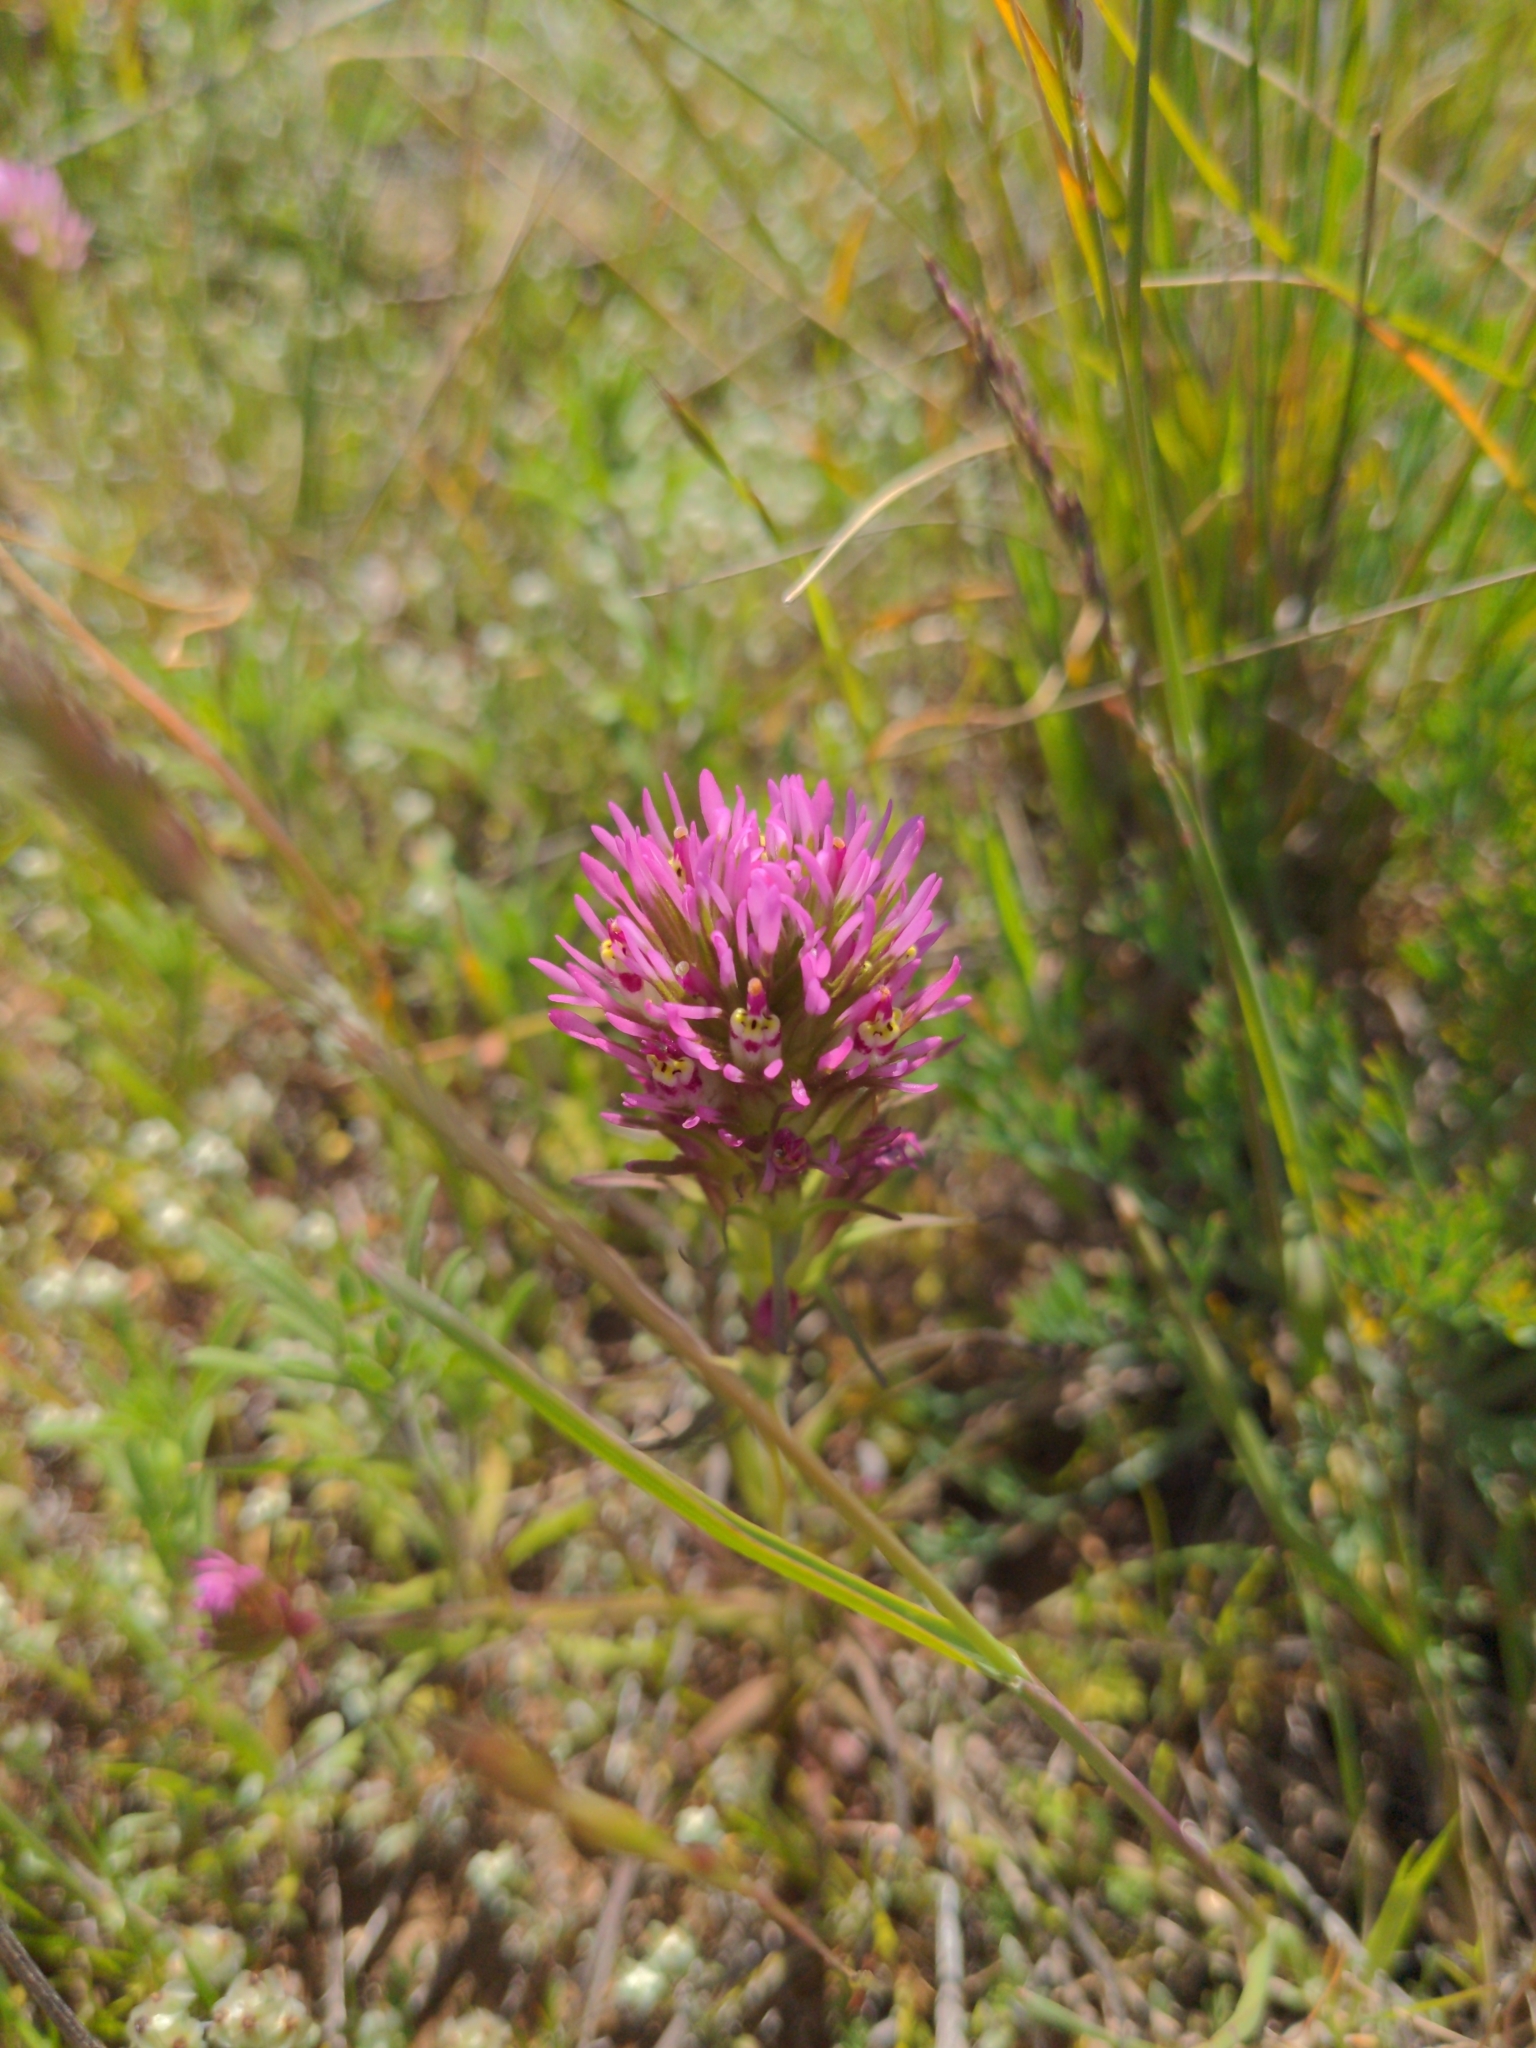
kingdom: Plantae
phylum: Tracheophyta
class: Magnoliopsida
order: Lamiales
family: Orobanchaceae
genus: Castilleja
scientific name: Castilleja densiflora
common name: Dense-flower indian paintbrush
